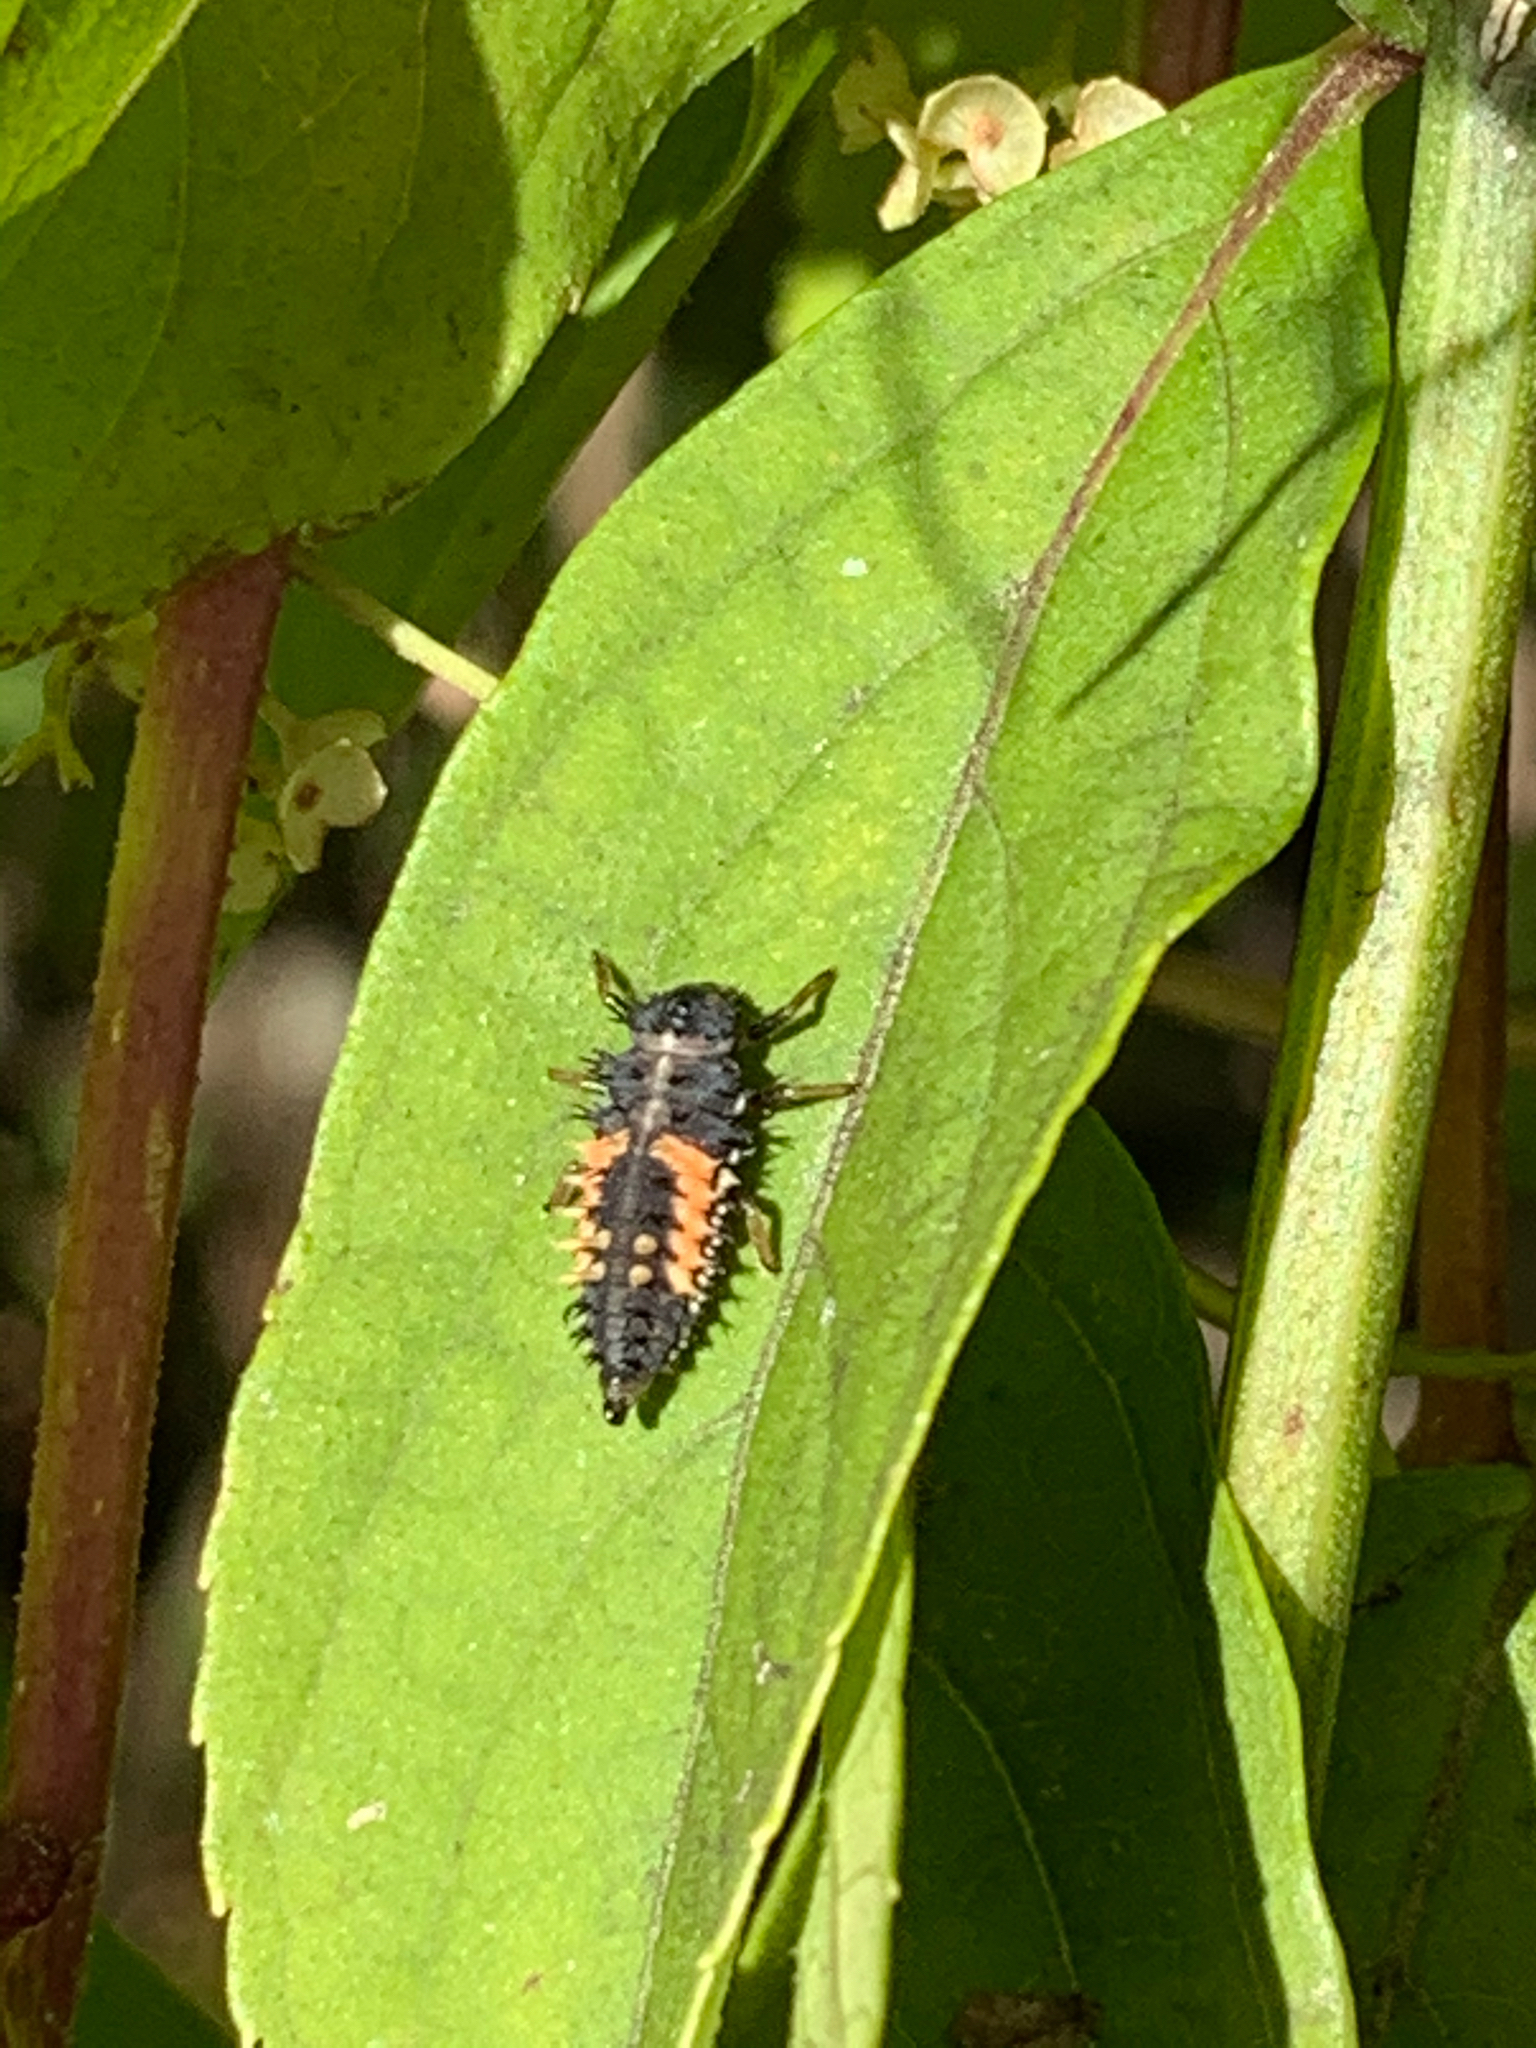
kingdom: Animalia
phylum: Arthropoda
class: Insecta
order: Coleoptera
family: Coccinellidae
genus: Harmonia
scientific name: Harmonia axyridis
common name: Harlequin ladybird
